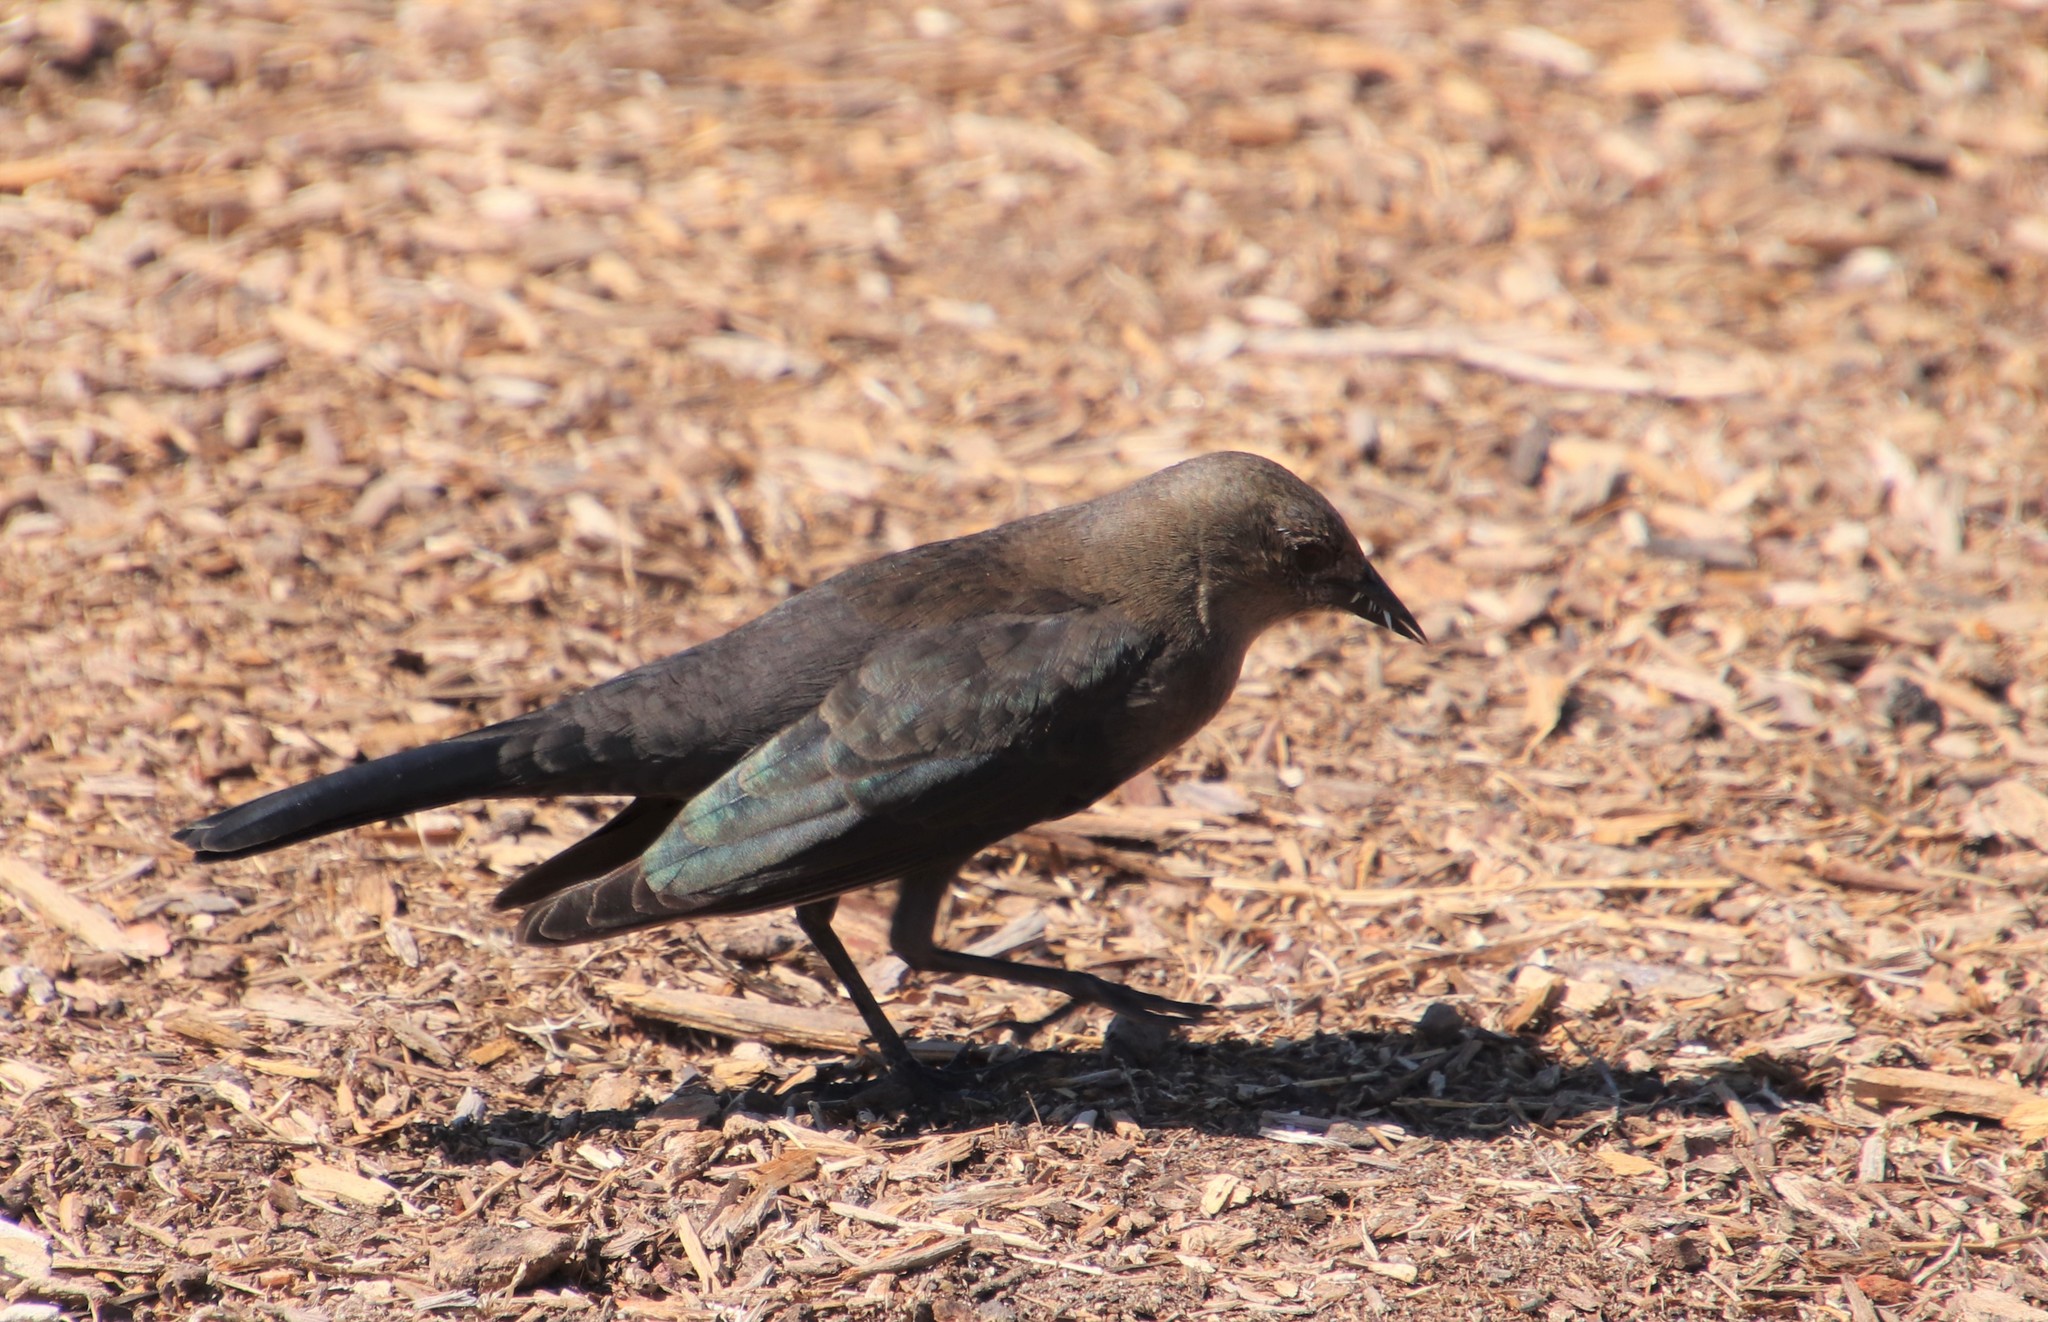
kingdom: Animalia
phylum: Chordata
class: Aves
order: Passeriformes
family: Icteridae
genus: Euphagus
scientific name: Euphagus cyanocephalus
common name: Brewer's blackbird
